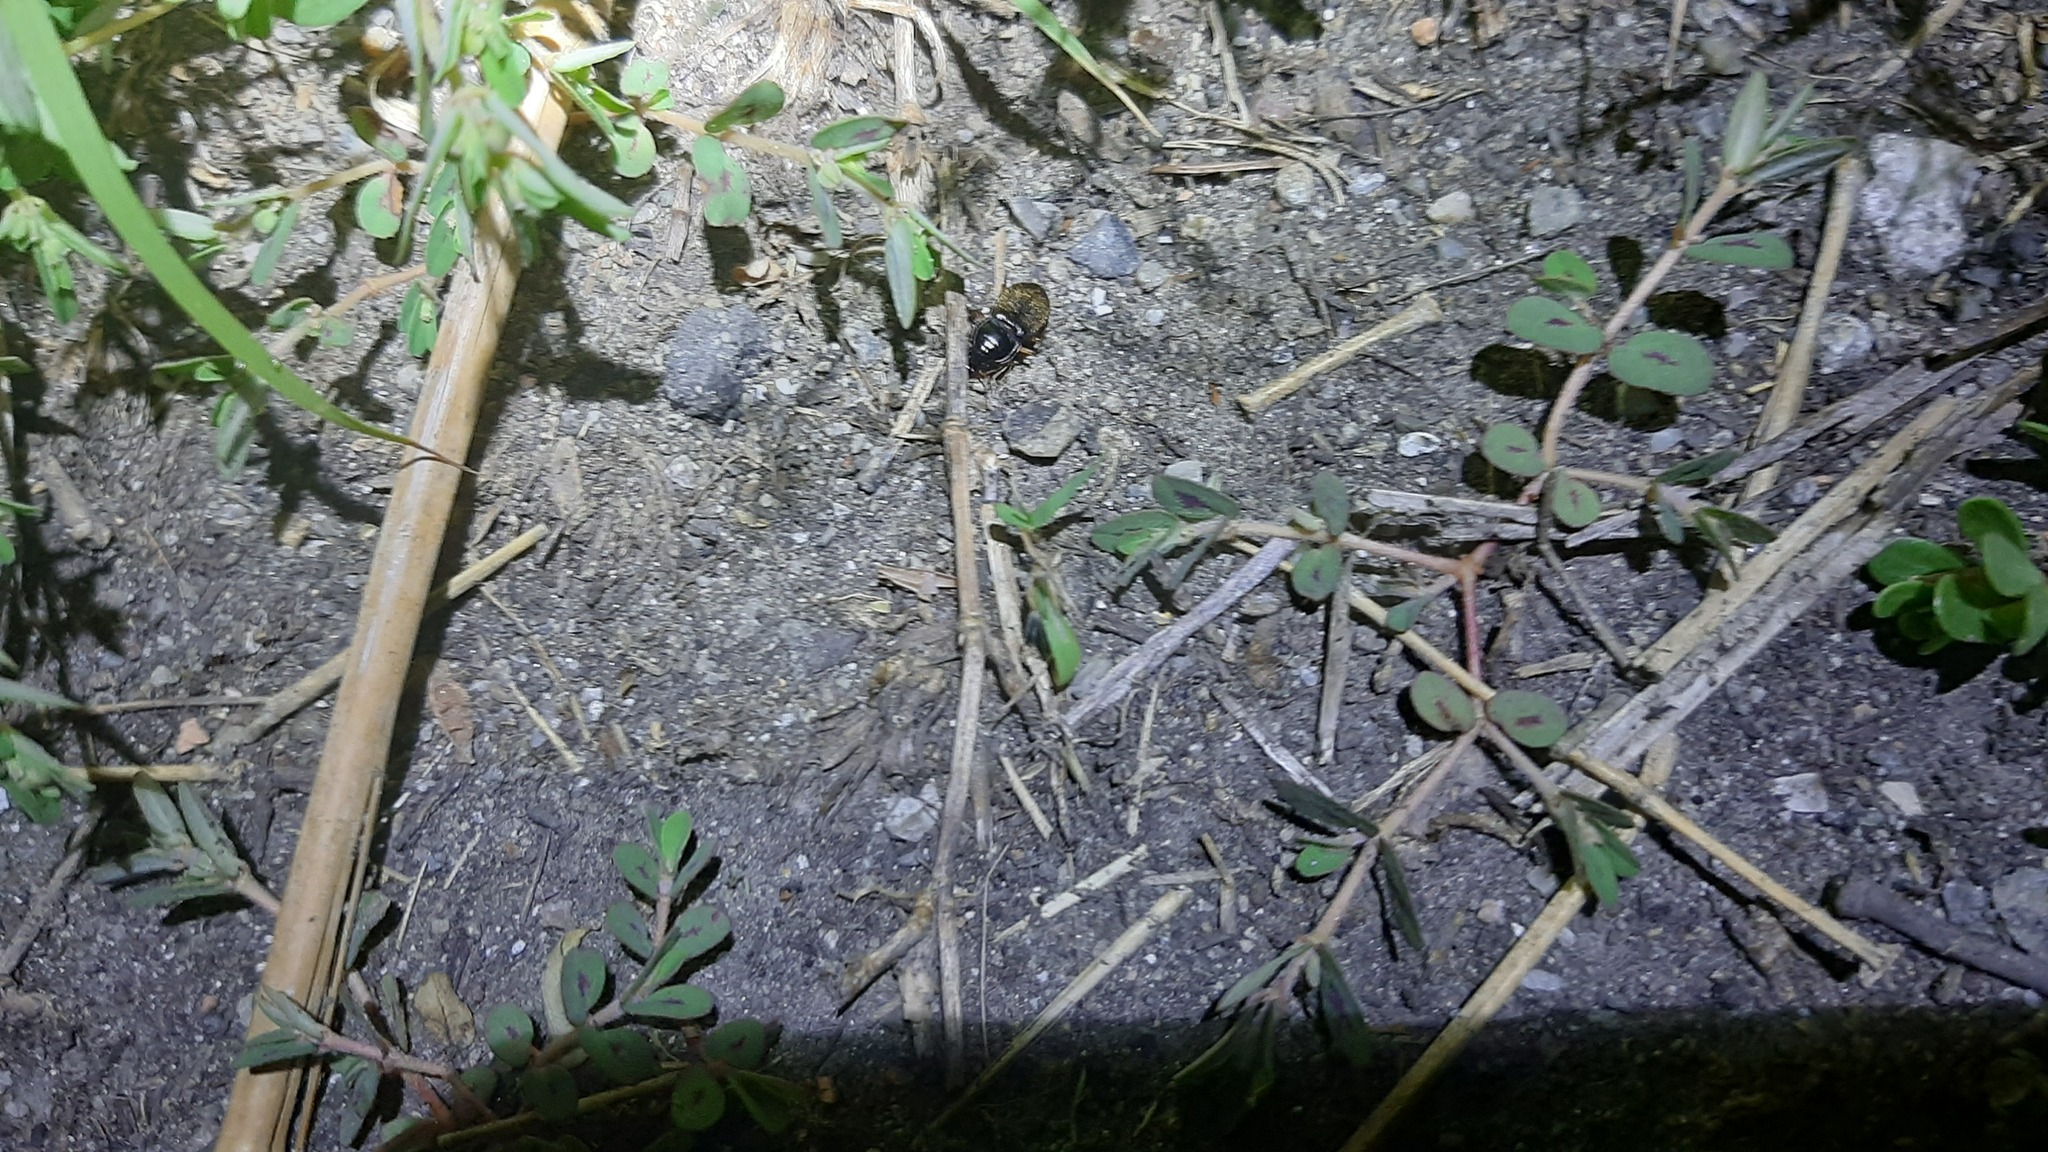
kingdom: Animalia
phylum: Arthropoda
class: Insecta
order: Coleoptera
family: Carabidae
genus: Harpalus
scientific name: Harpalus rufipes
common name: Strawberry harp ground beetle
